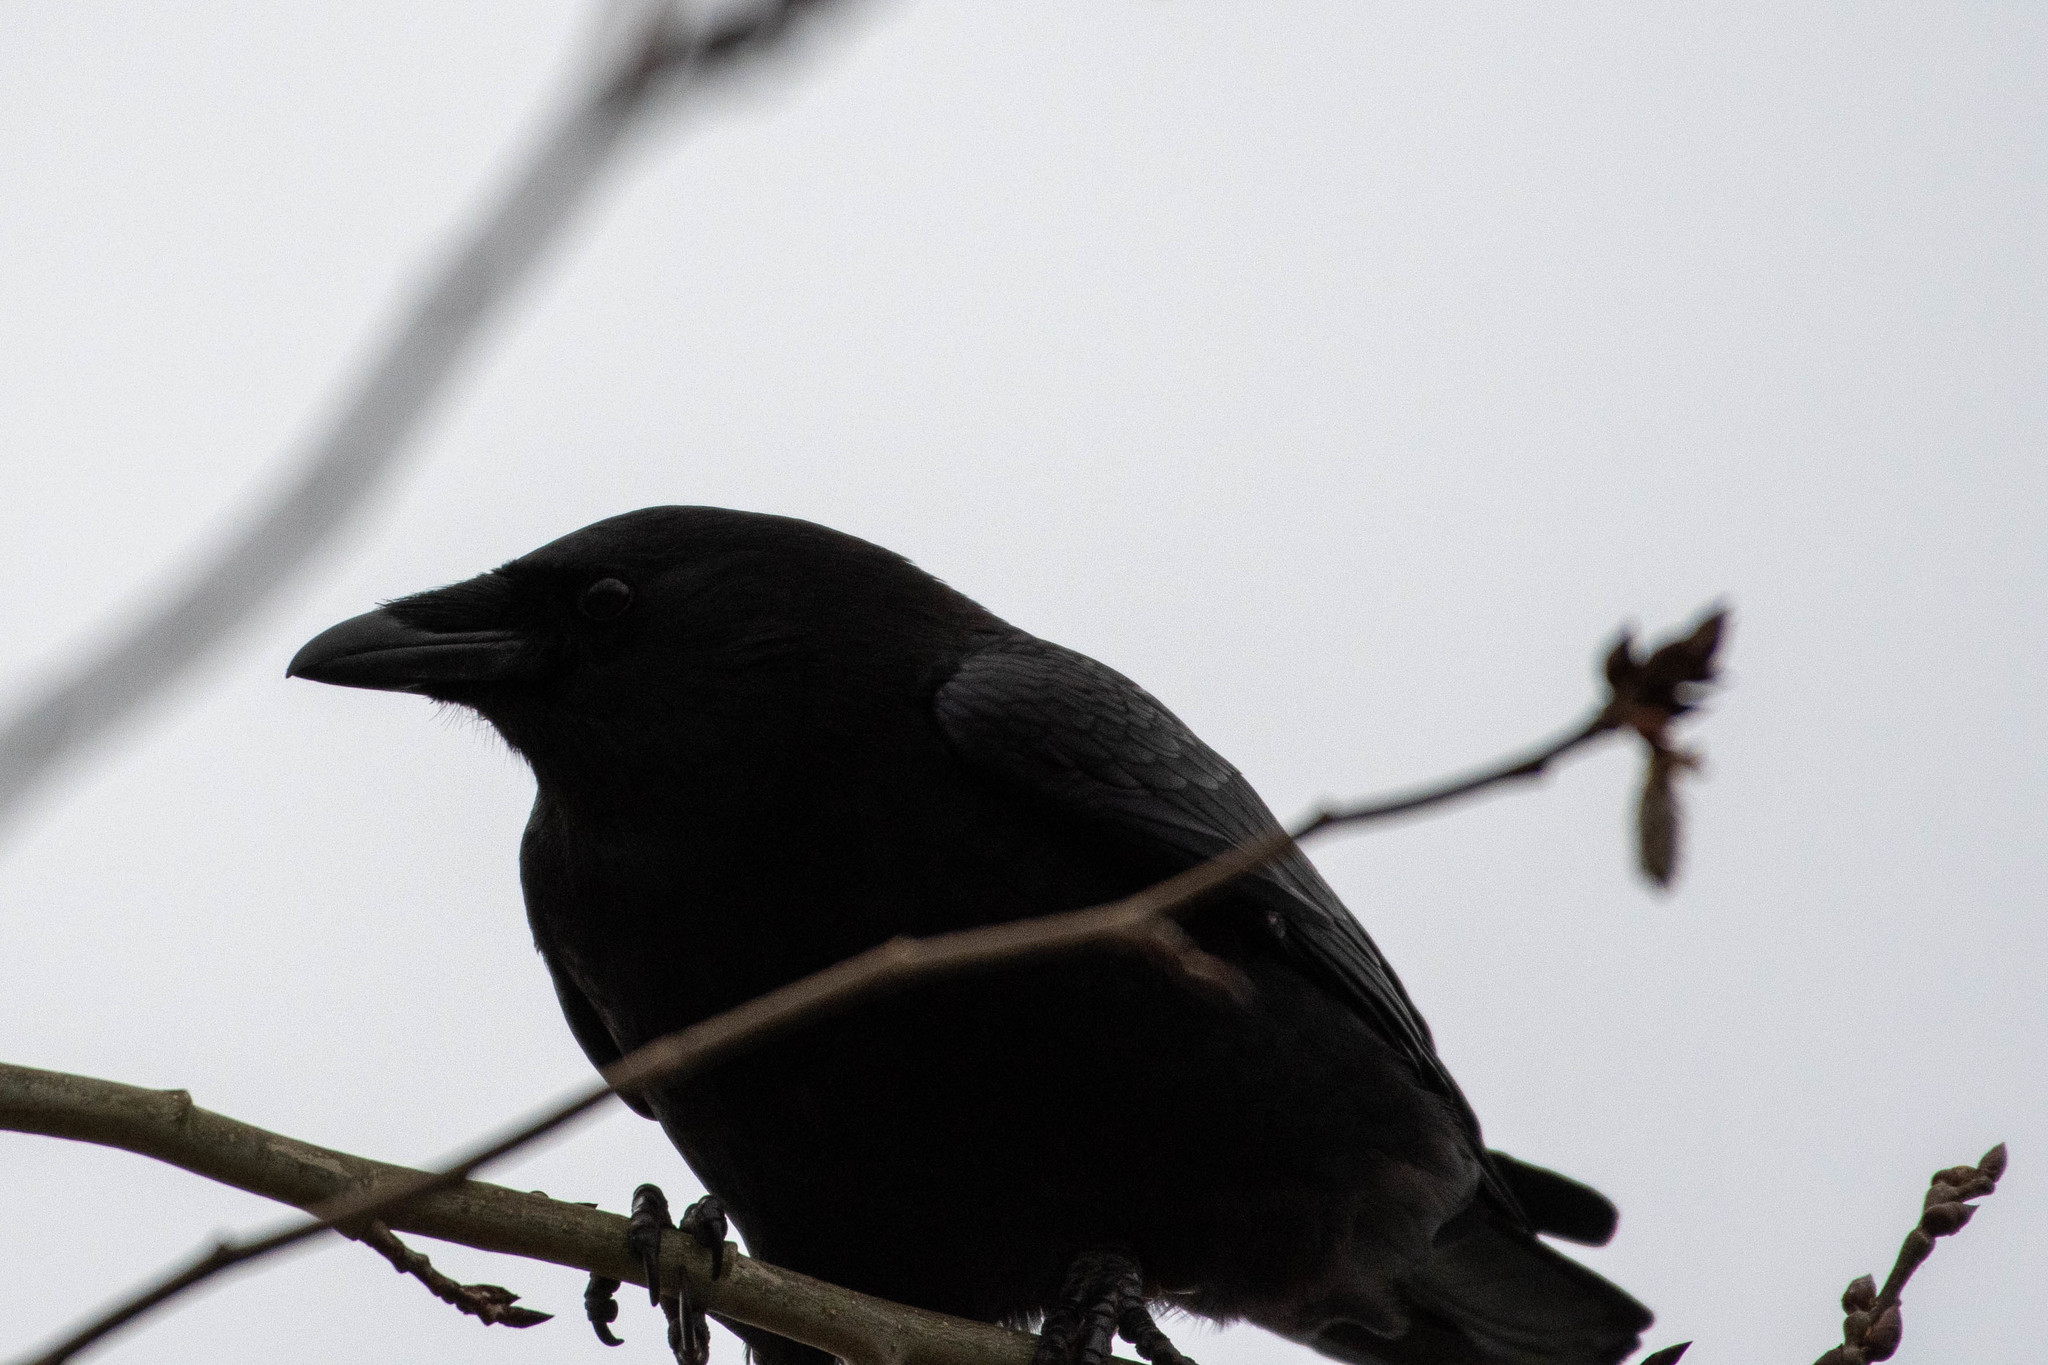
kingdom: Animalia
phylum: Chordata
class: Aves
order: Passeriformes
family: Corvidae
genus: Corvus
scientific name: Corvus brachyrhynchos
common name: American crow
